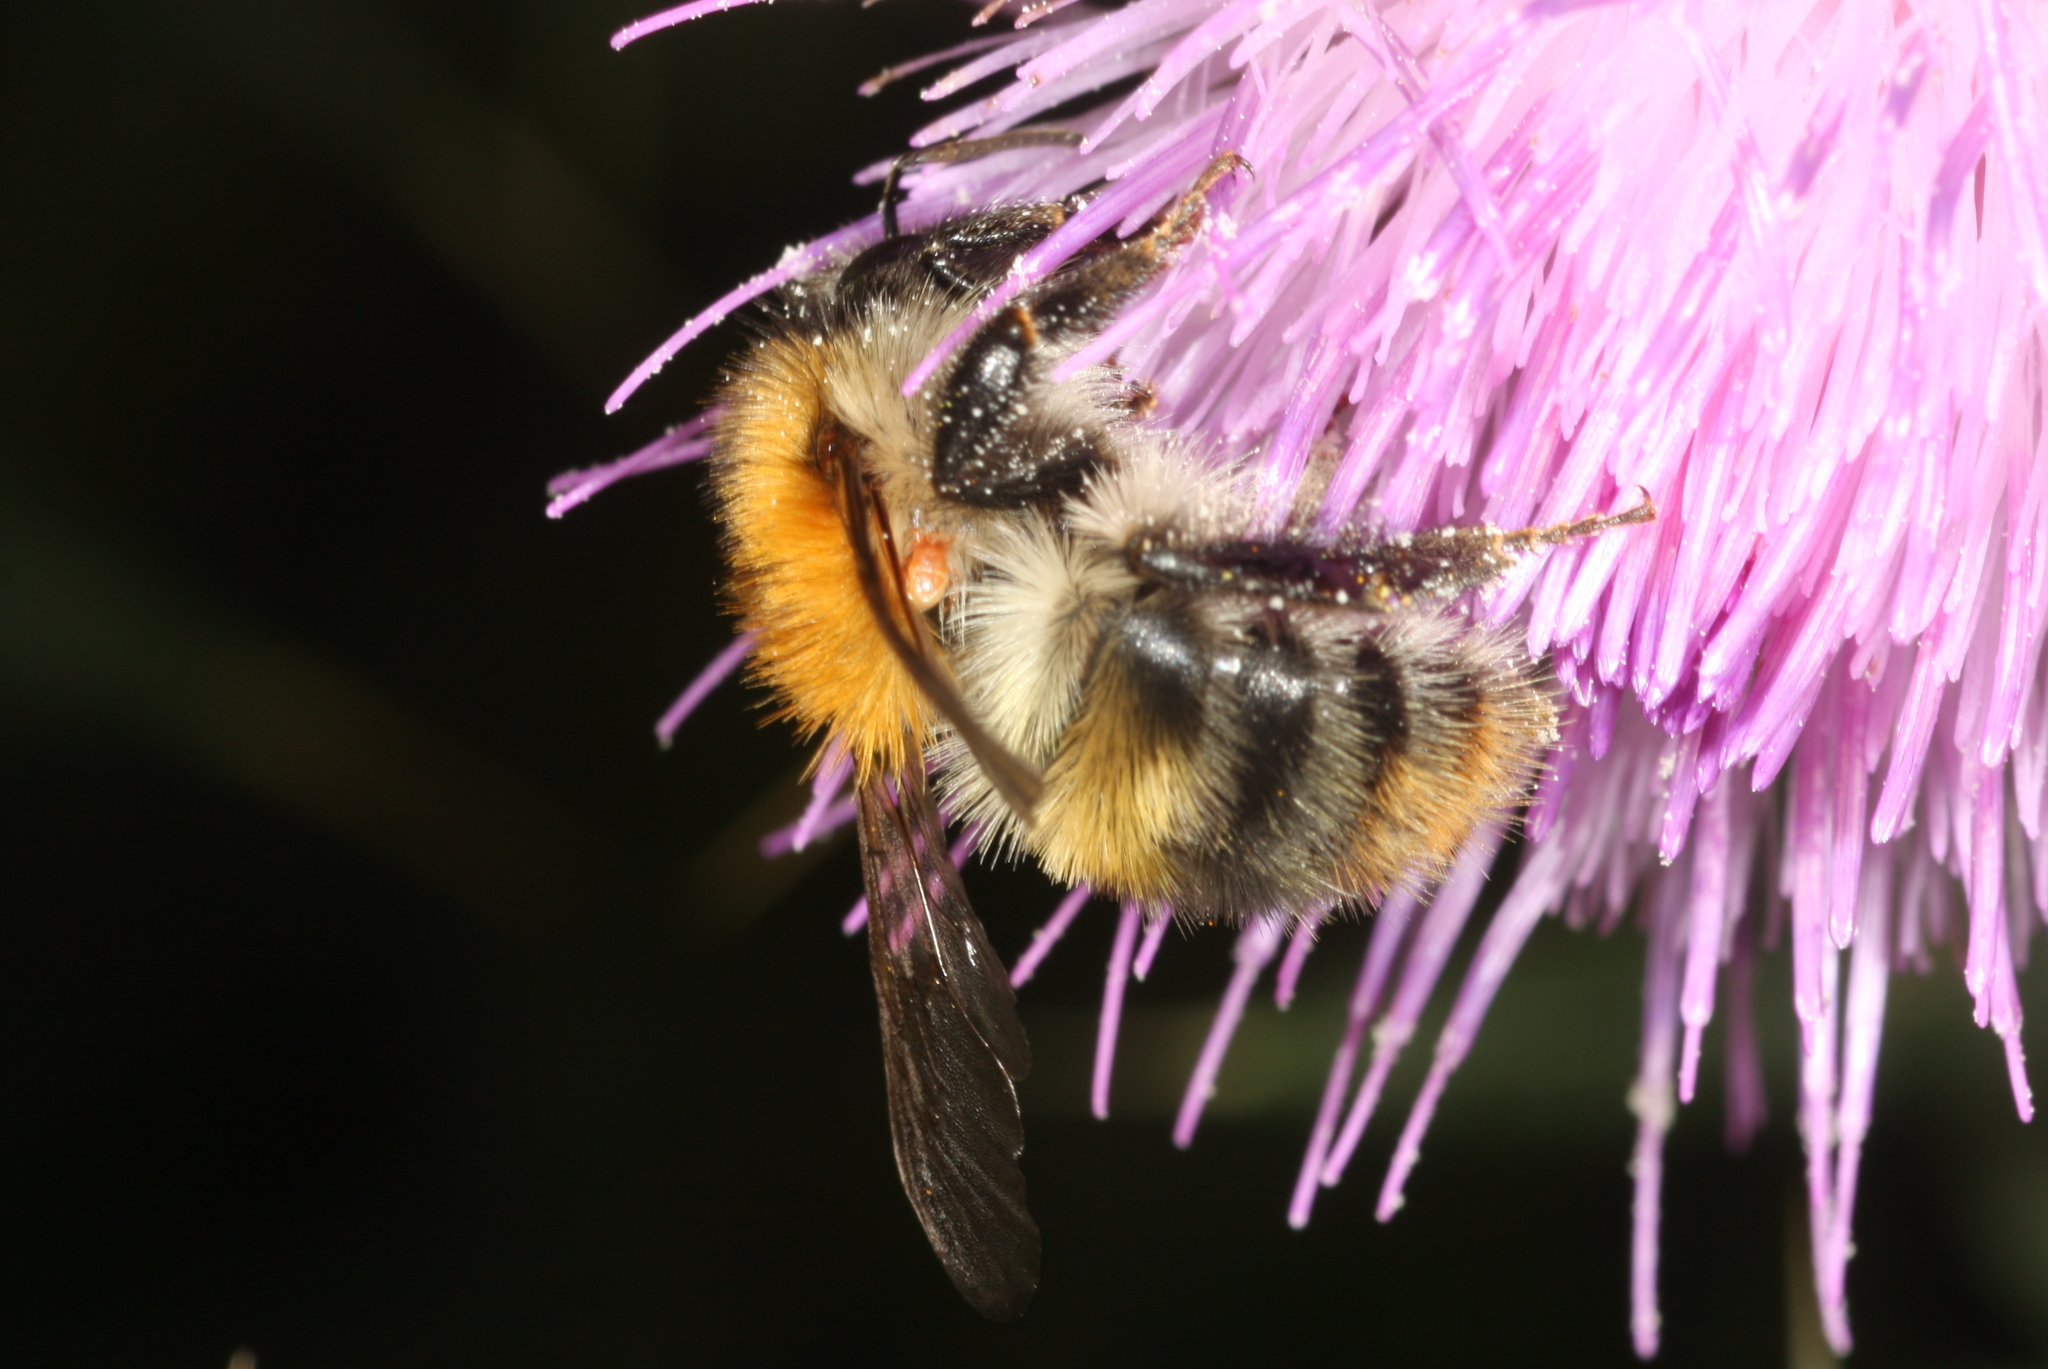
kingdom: Animalia
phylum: Arthropoda
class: Insecta
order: Hymenoptera
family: Apidae
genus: Bombus
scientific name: Bombus pascuorum
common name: Common carder bee
